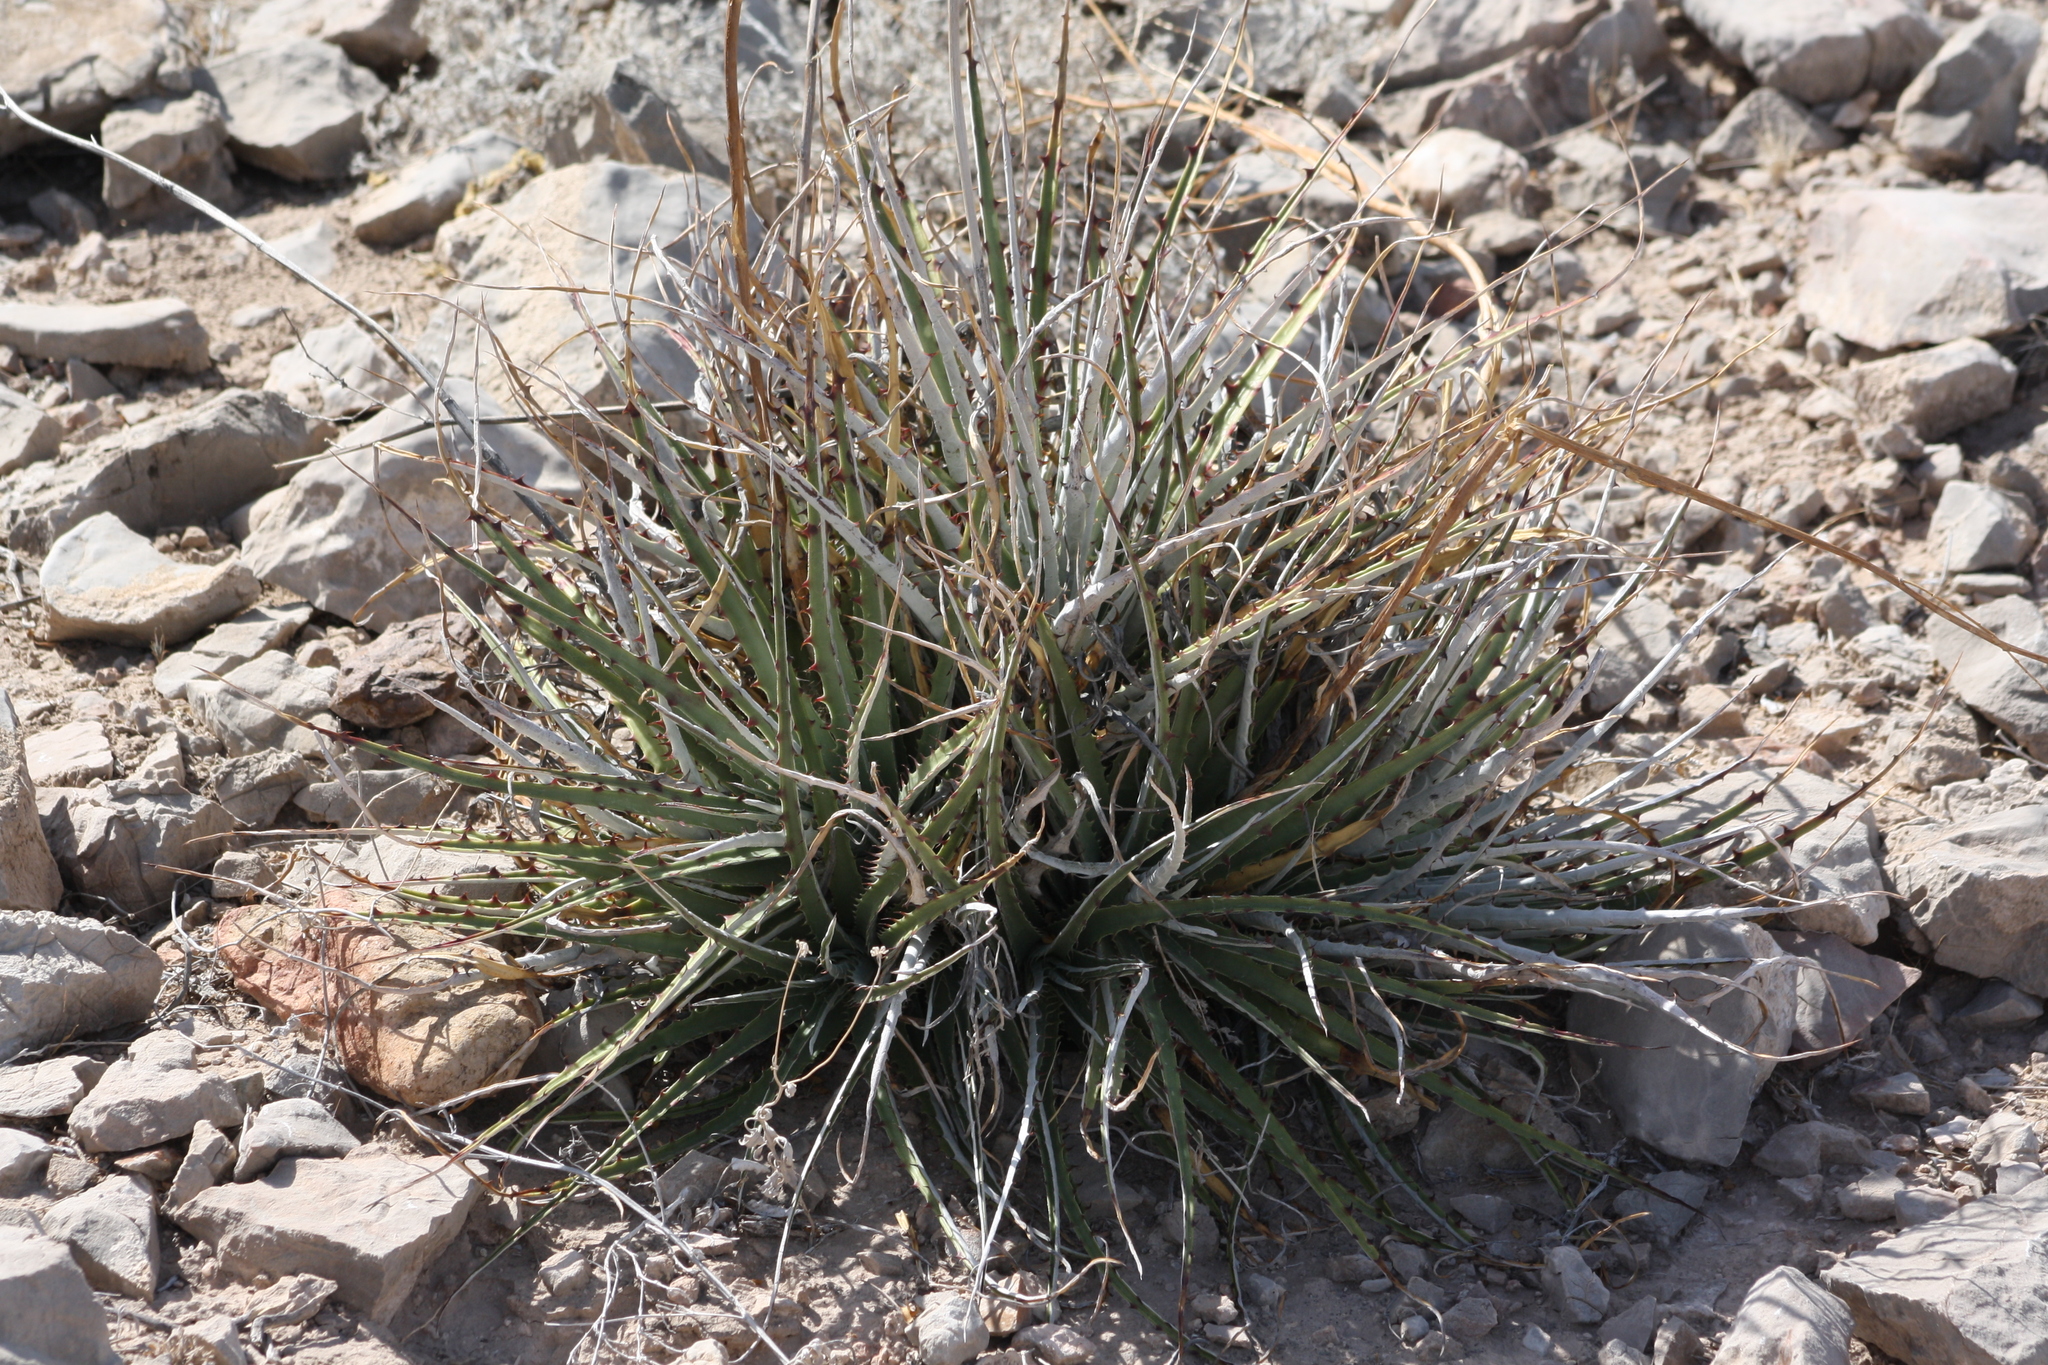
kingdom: Plantae
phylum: Tracheophyta
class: Liliopsida
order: Poales
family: Bromeliaceae
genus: Hechtia
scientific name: Hechtia texensis
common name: False agave
